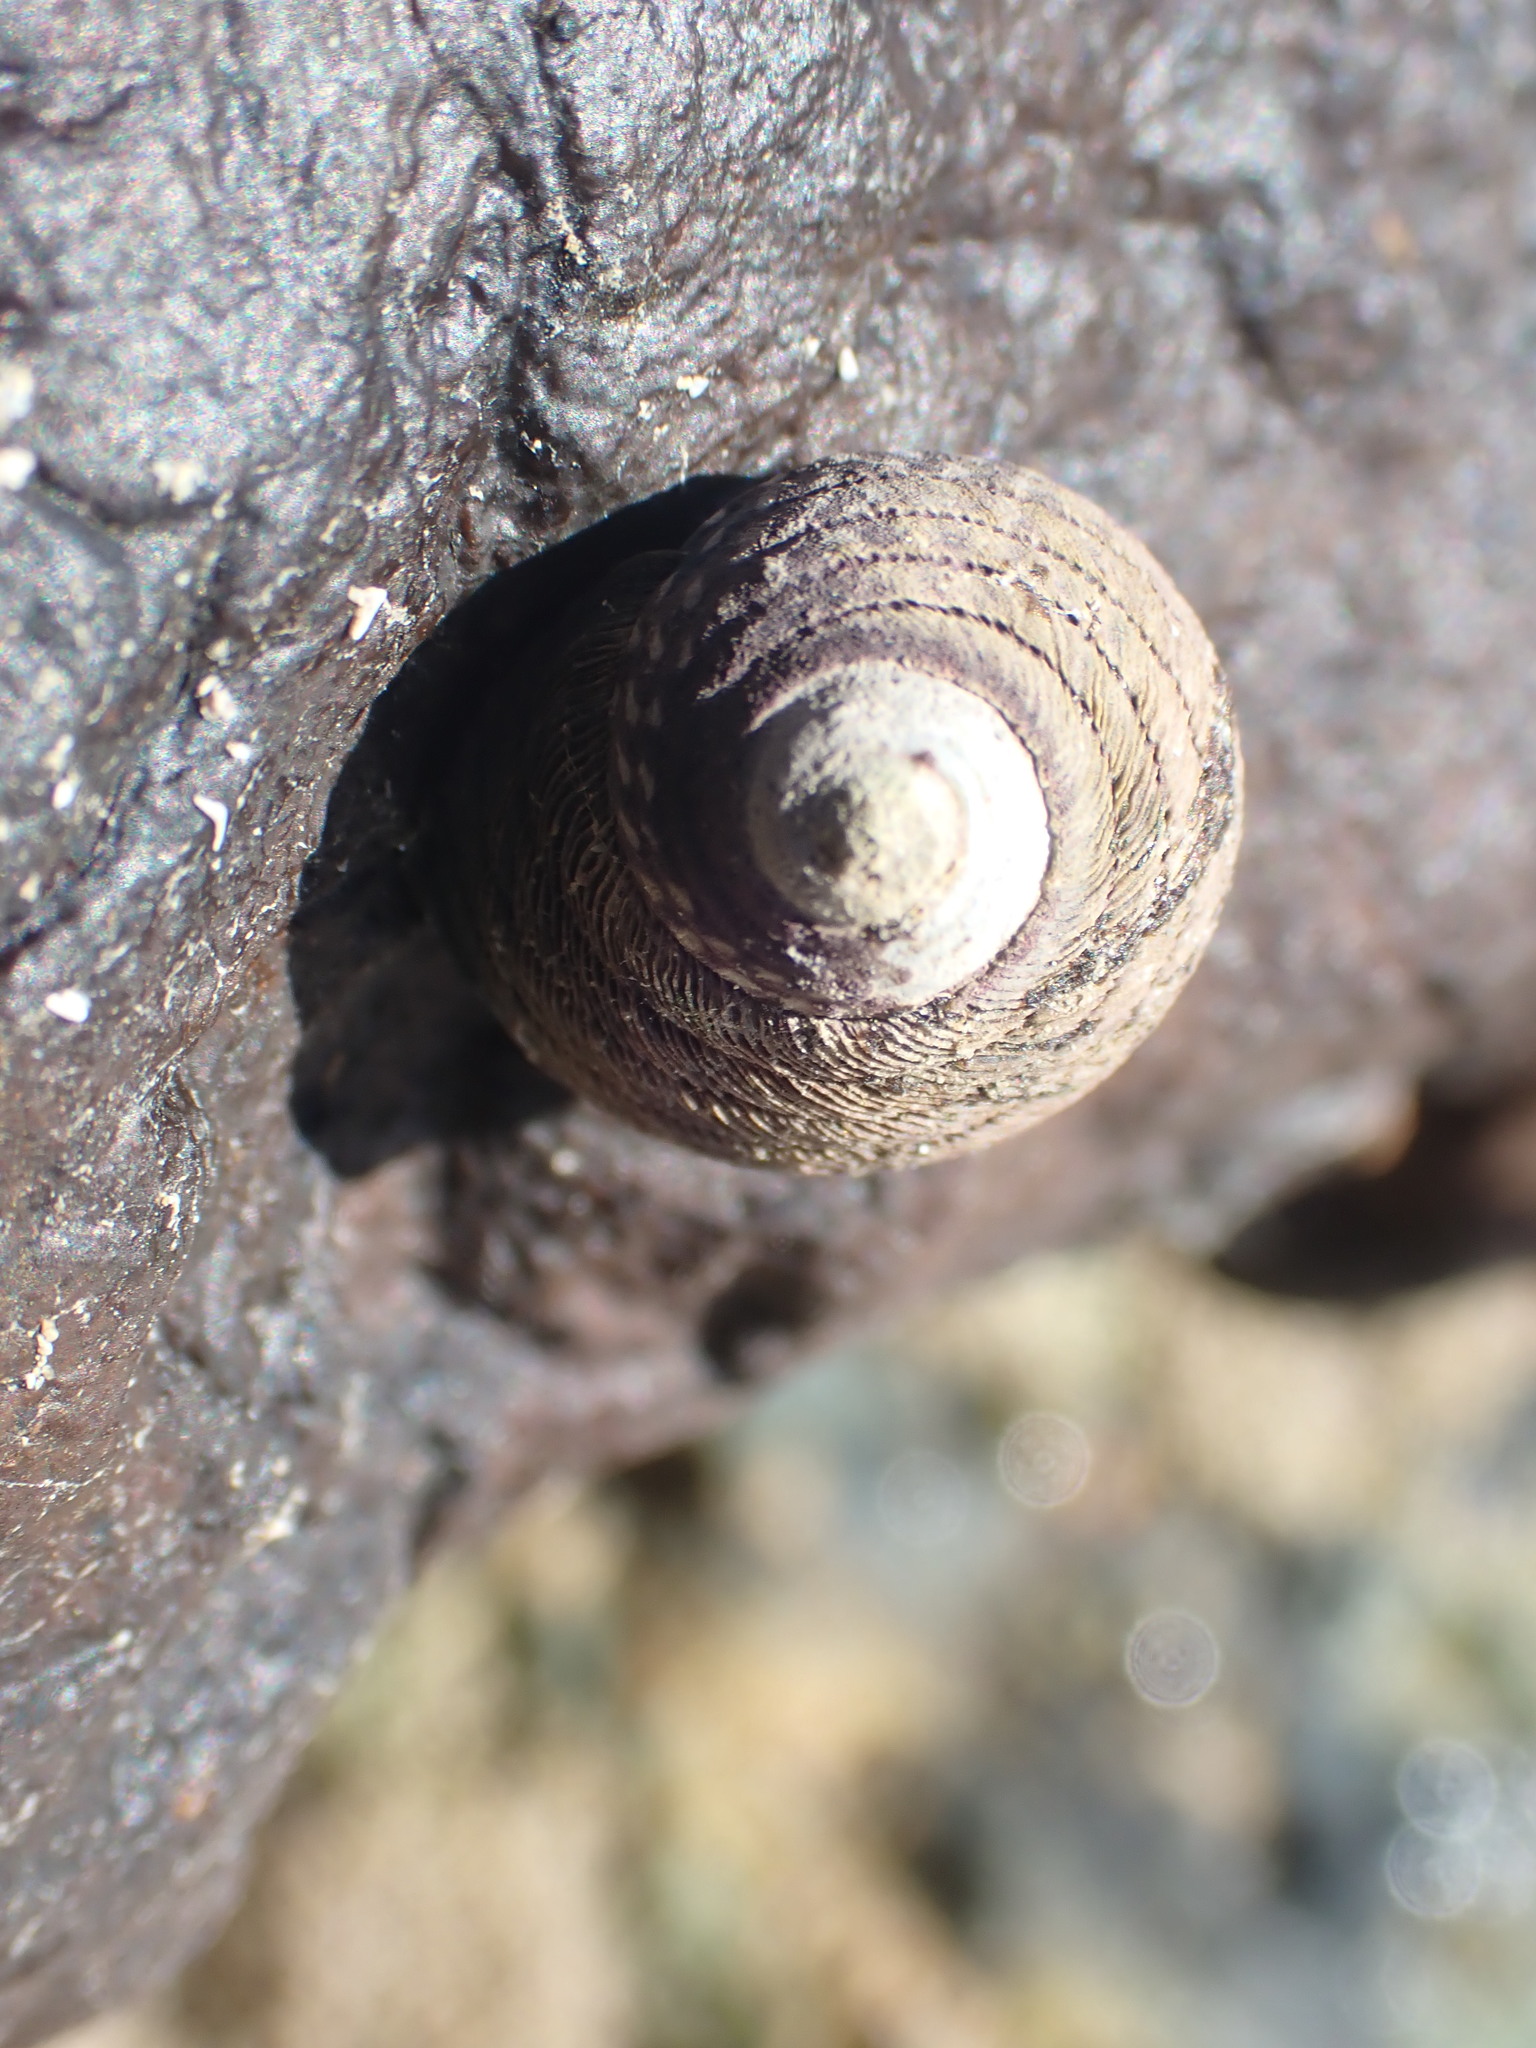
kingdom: Animalia
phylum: Mollusca
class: Gastropoda
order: Trochida
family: Trochidae
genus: Diloma
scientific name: Diloma aethiops
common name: Scorched monodont
